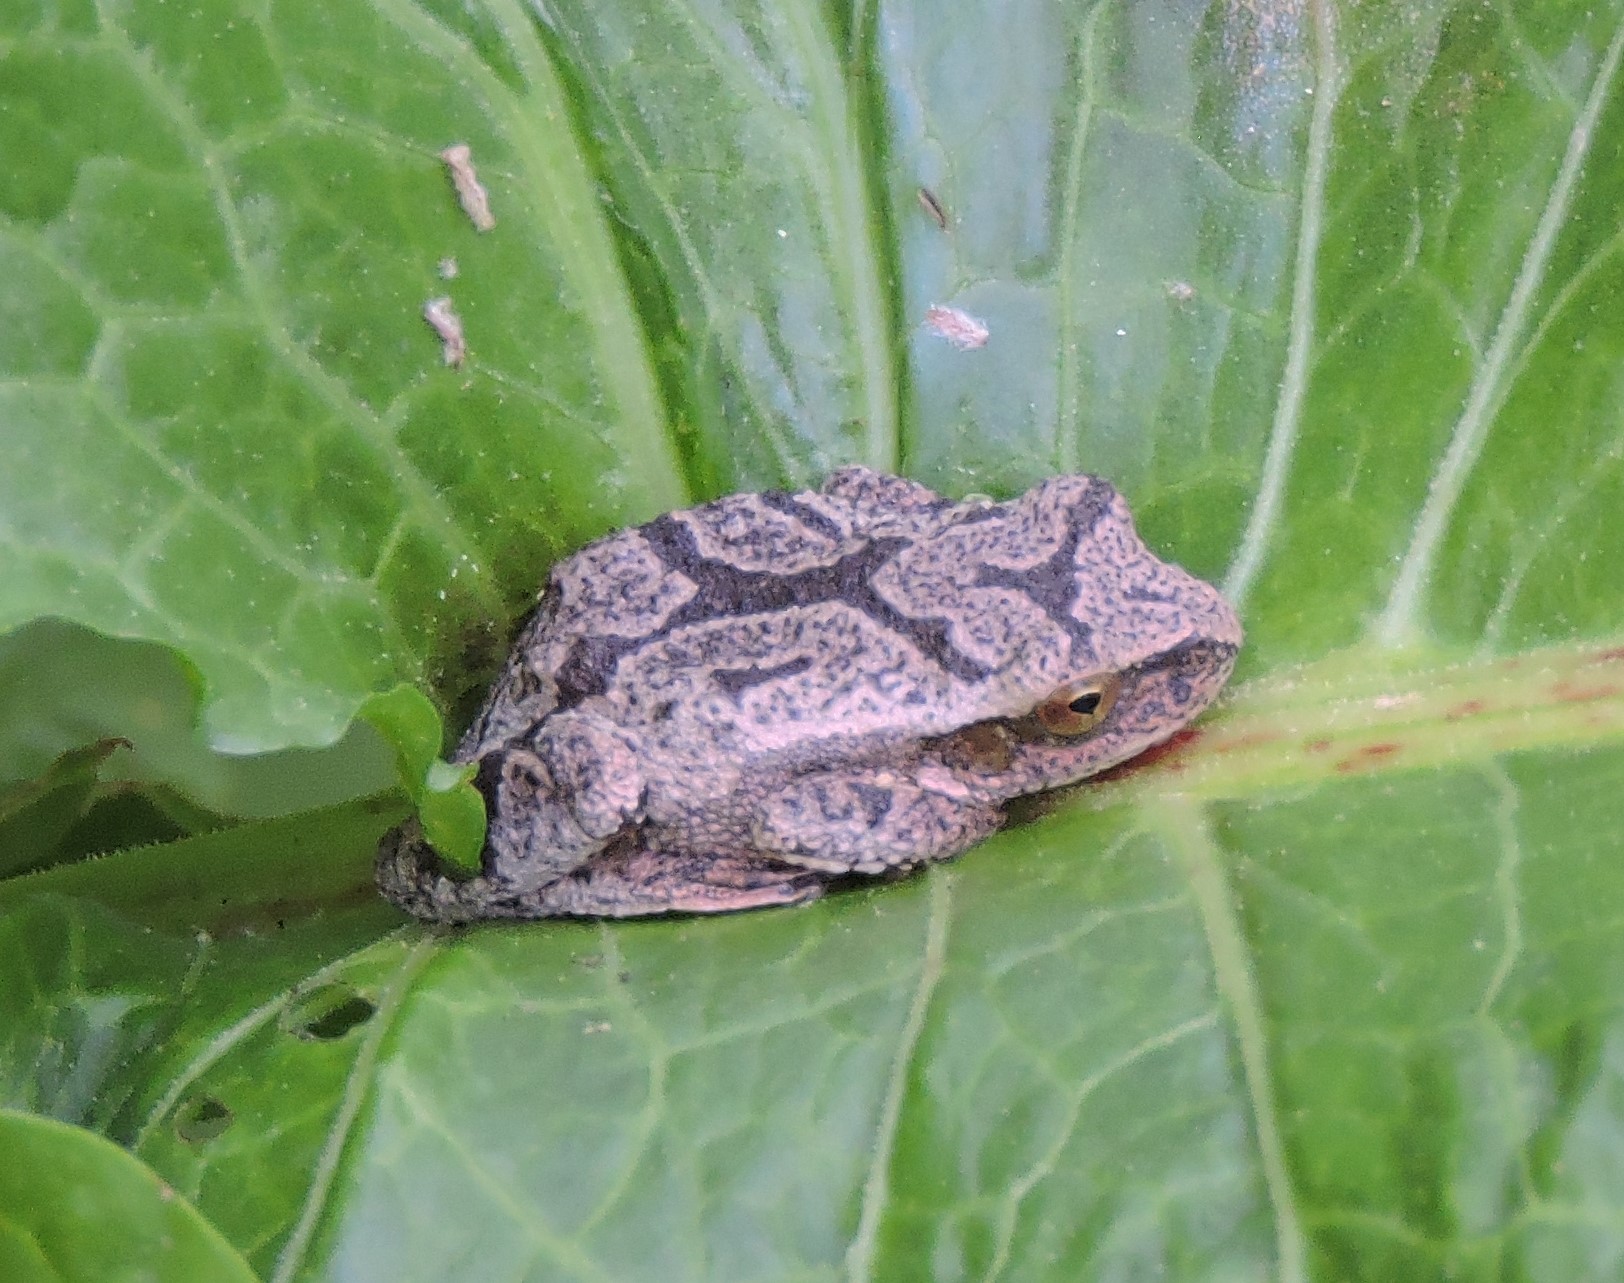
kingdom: Animalia
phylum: Chordata
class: Amphibia
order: Anura
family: Hylidae
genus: Pseudacris
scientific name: Pseudacris crucifer
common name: Spring peeper
